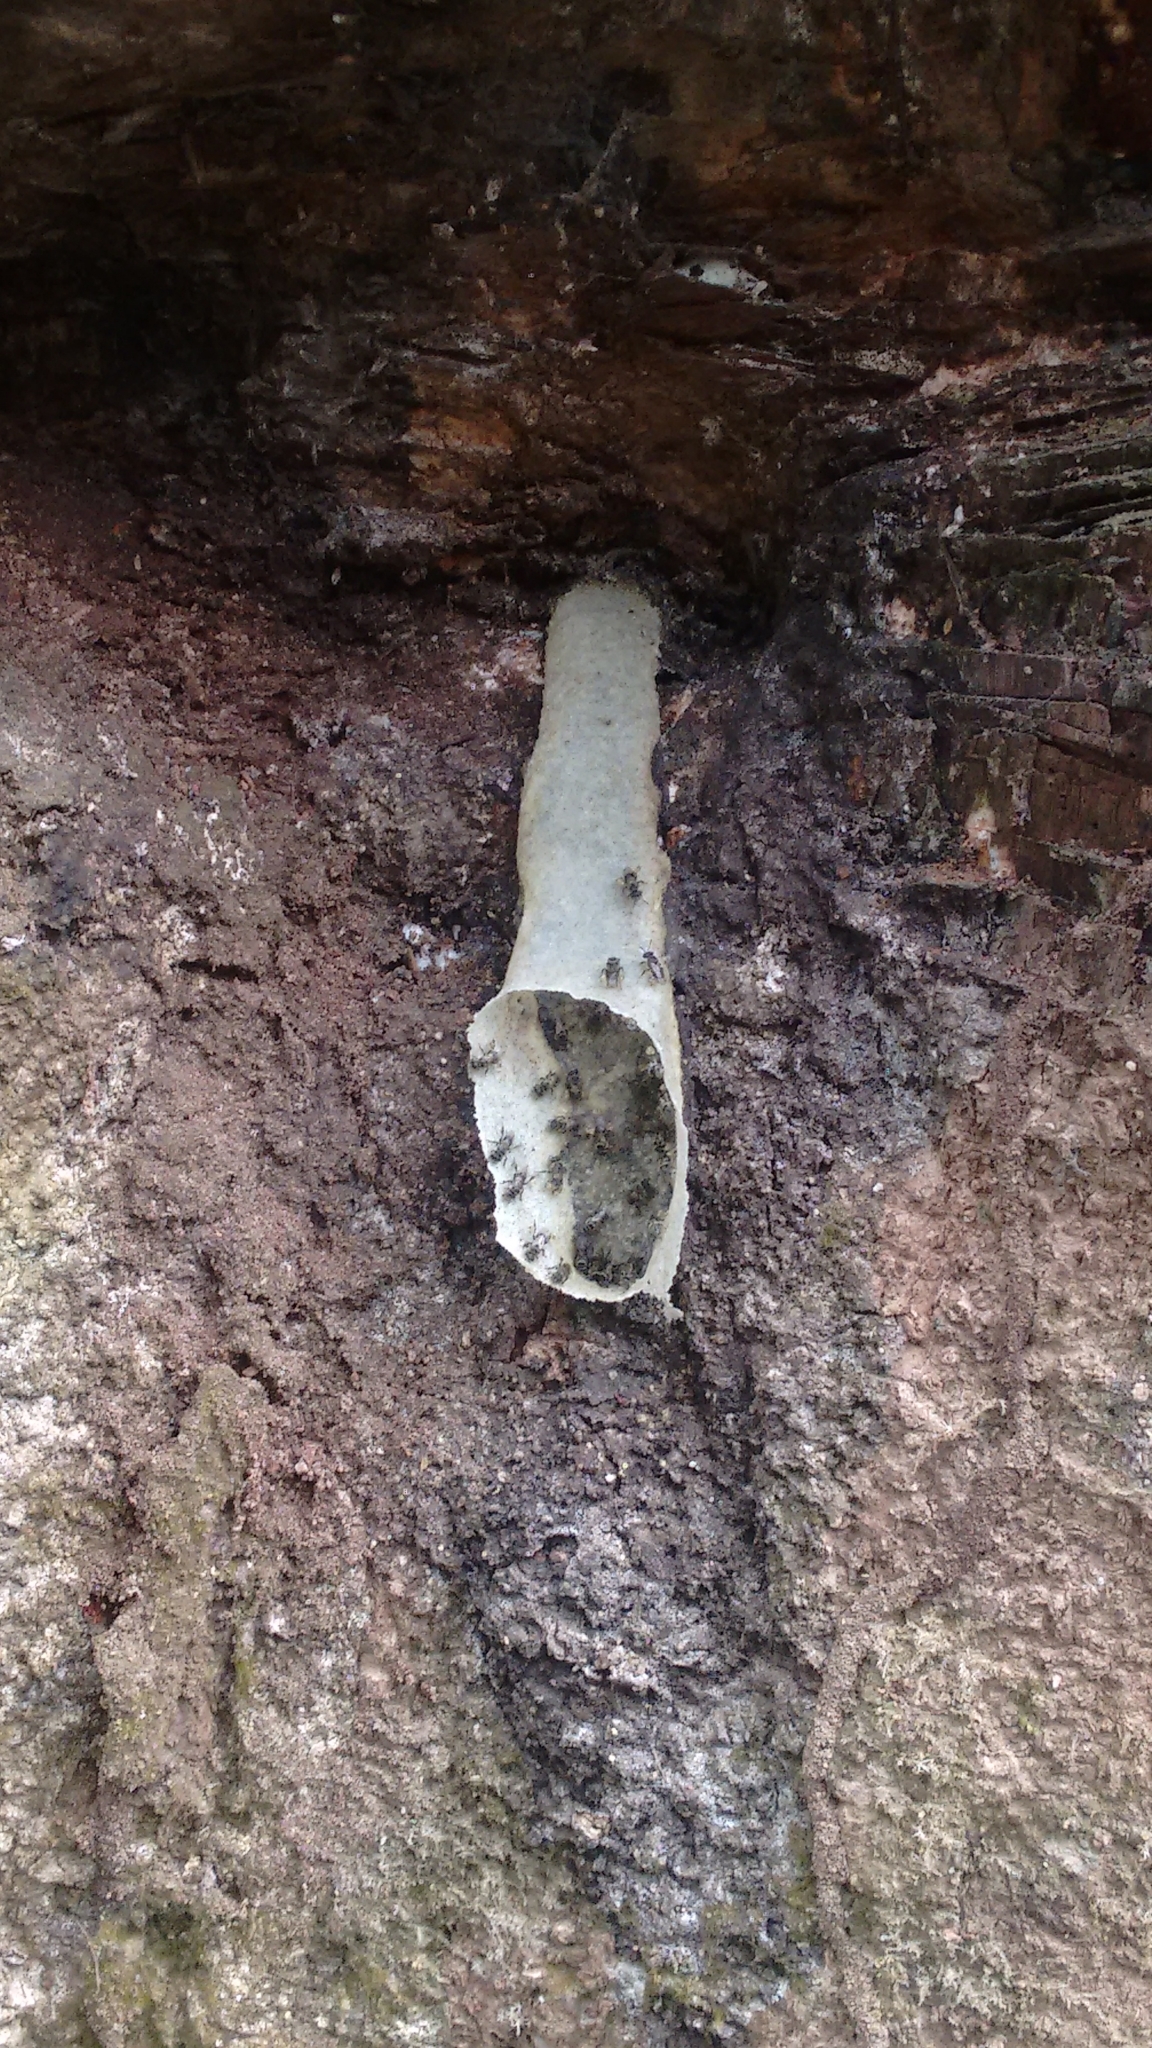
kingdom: Animalia
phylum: Arthropoda
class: Insecta
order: Hymenoptera
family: Apidae
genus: Lepidotrigona
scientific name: Lepidotrigona arcifera
